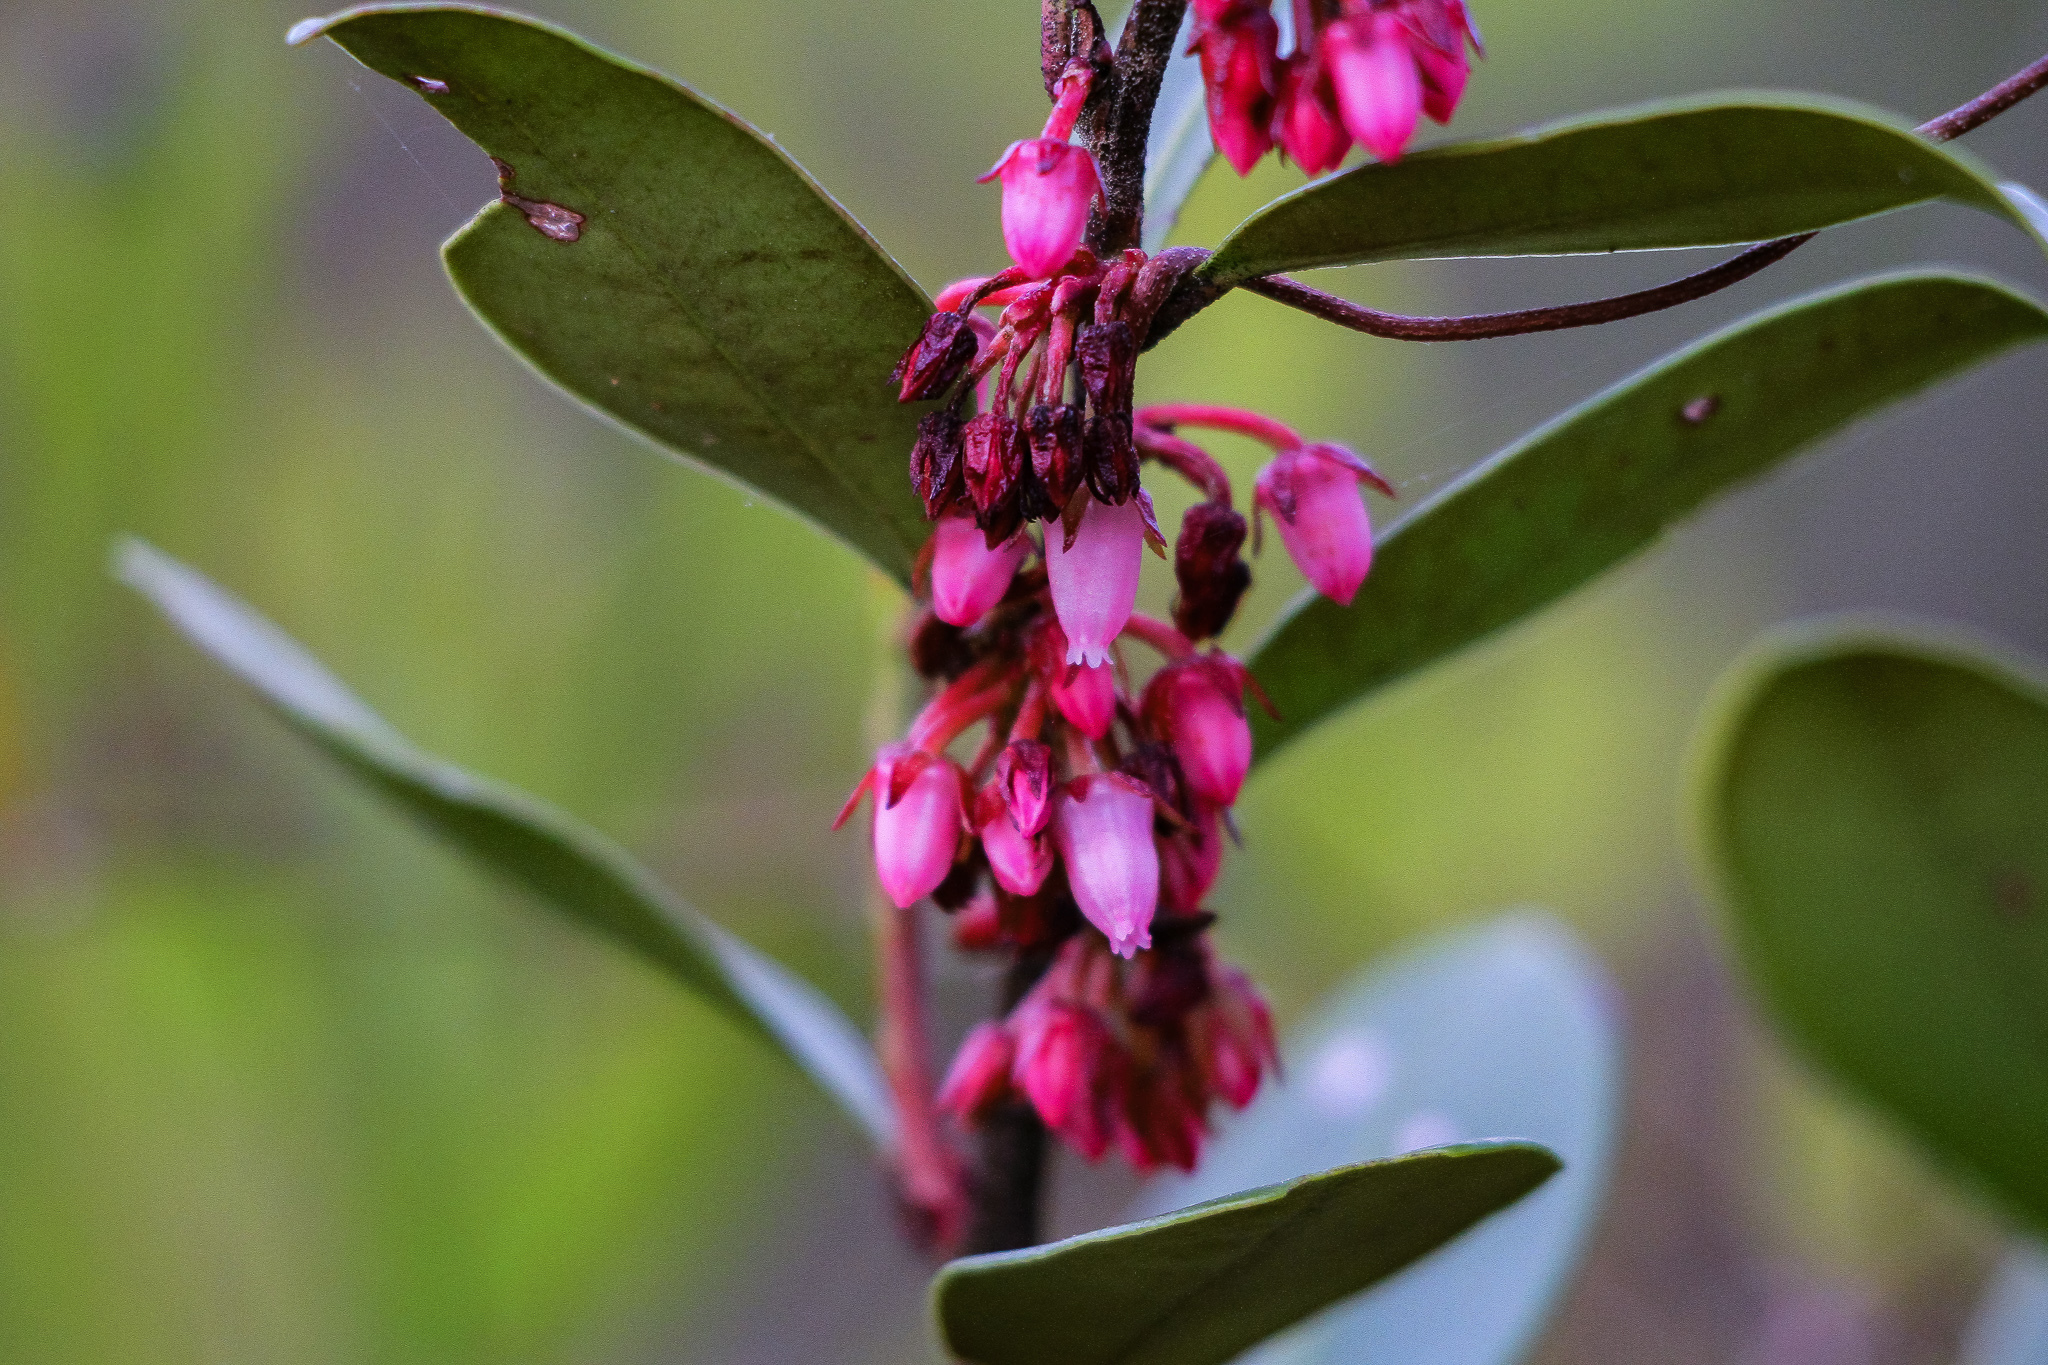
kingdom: Plantae
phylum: Tracheophyta
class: Magnoliopsida
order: Ericales
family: Ericaceae
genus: Lyonia
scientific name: Lyonia lucida
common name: Fetterbush
